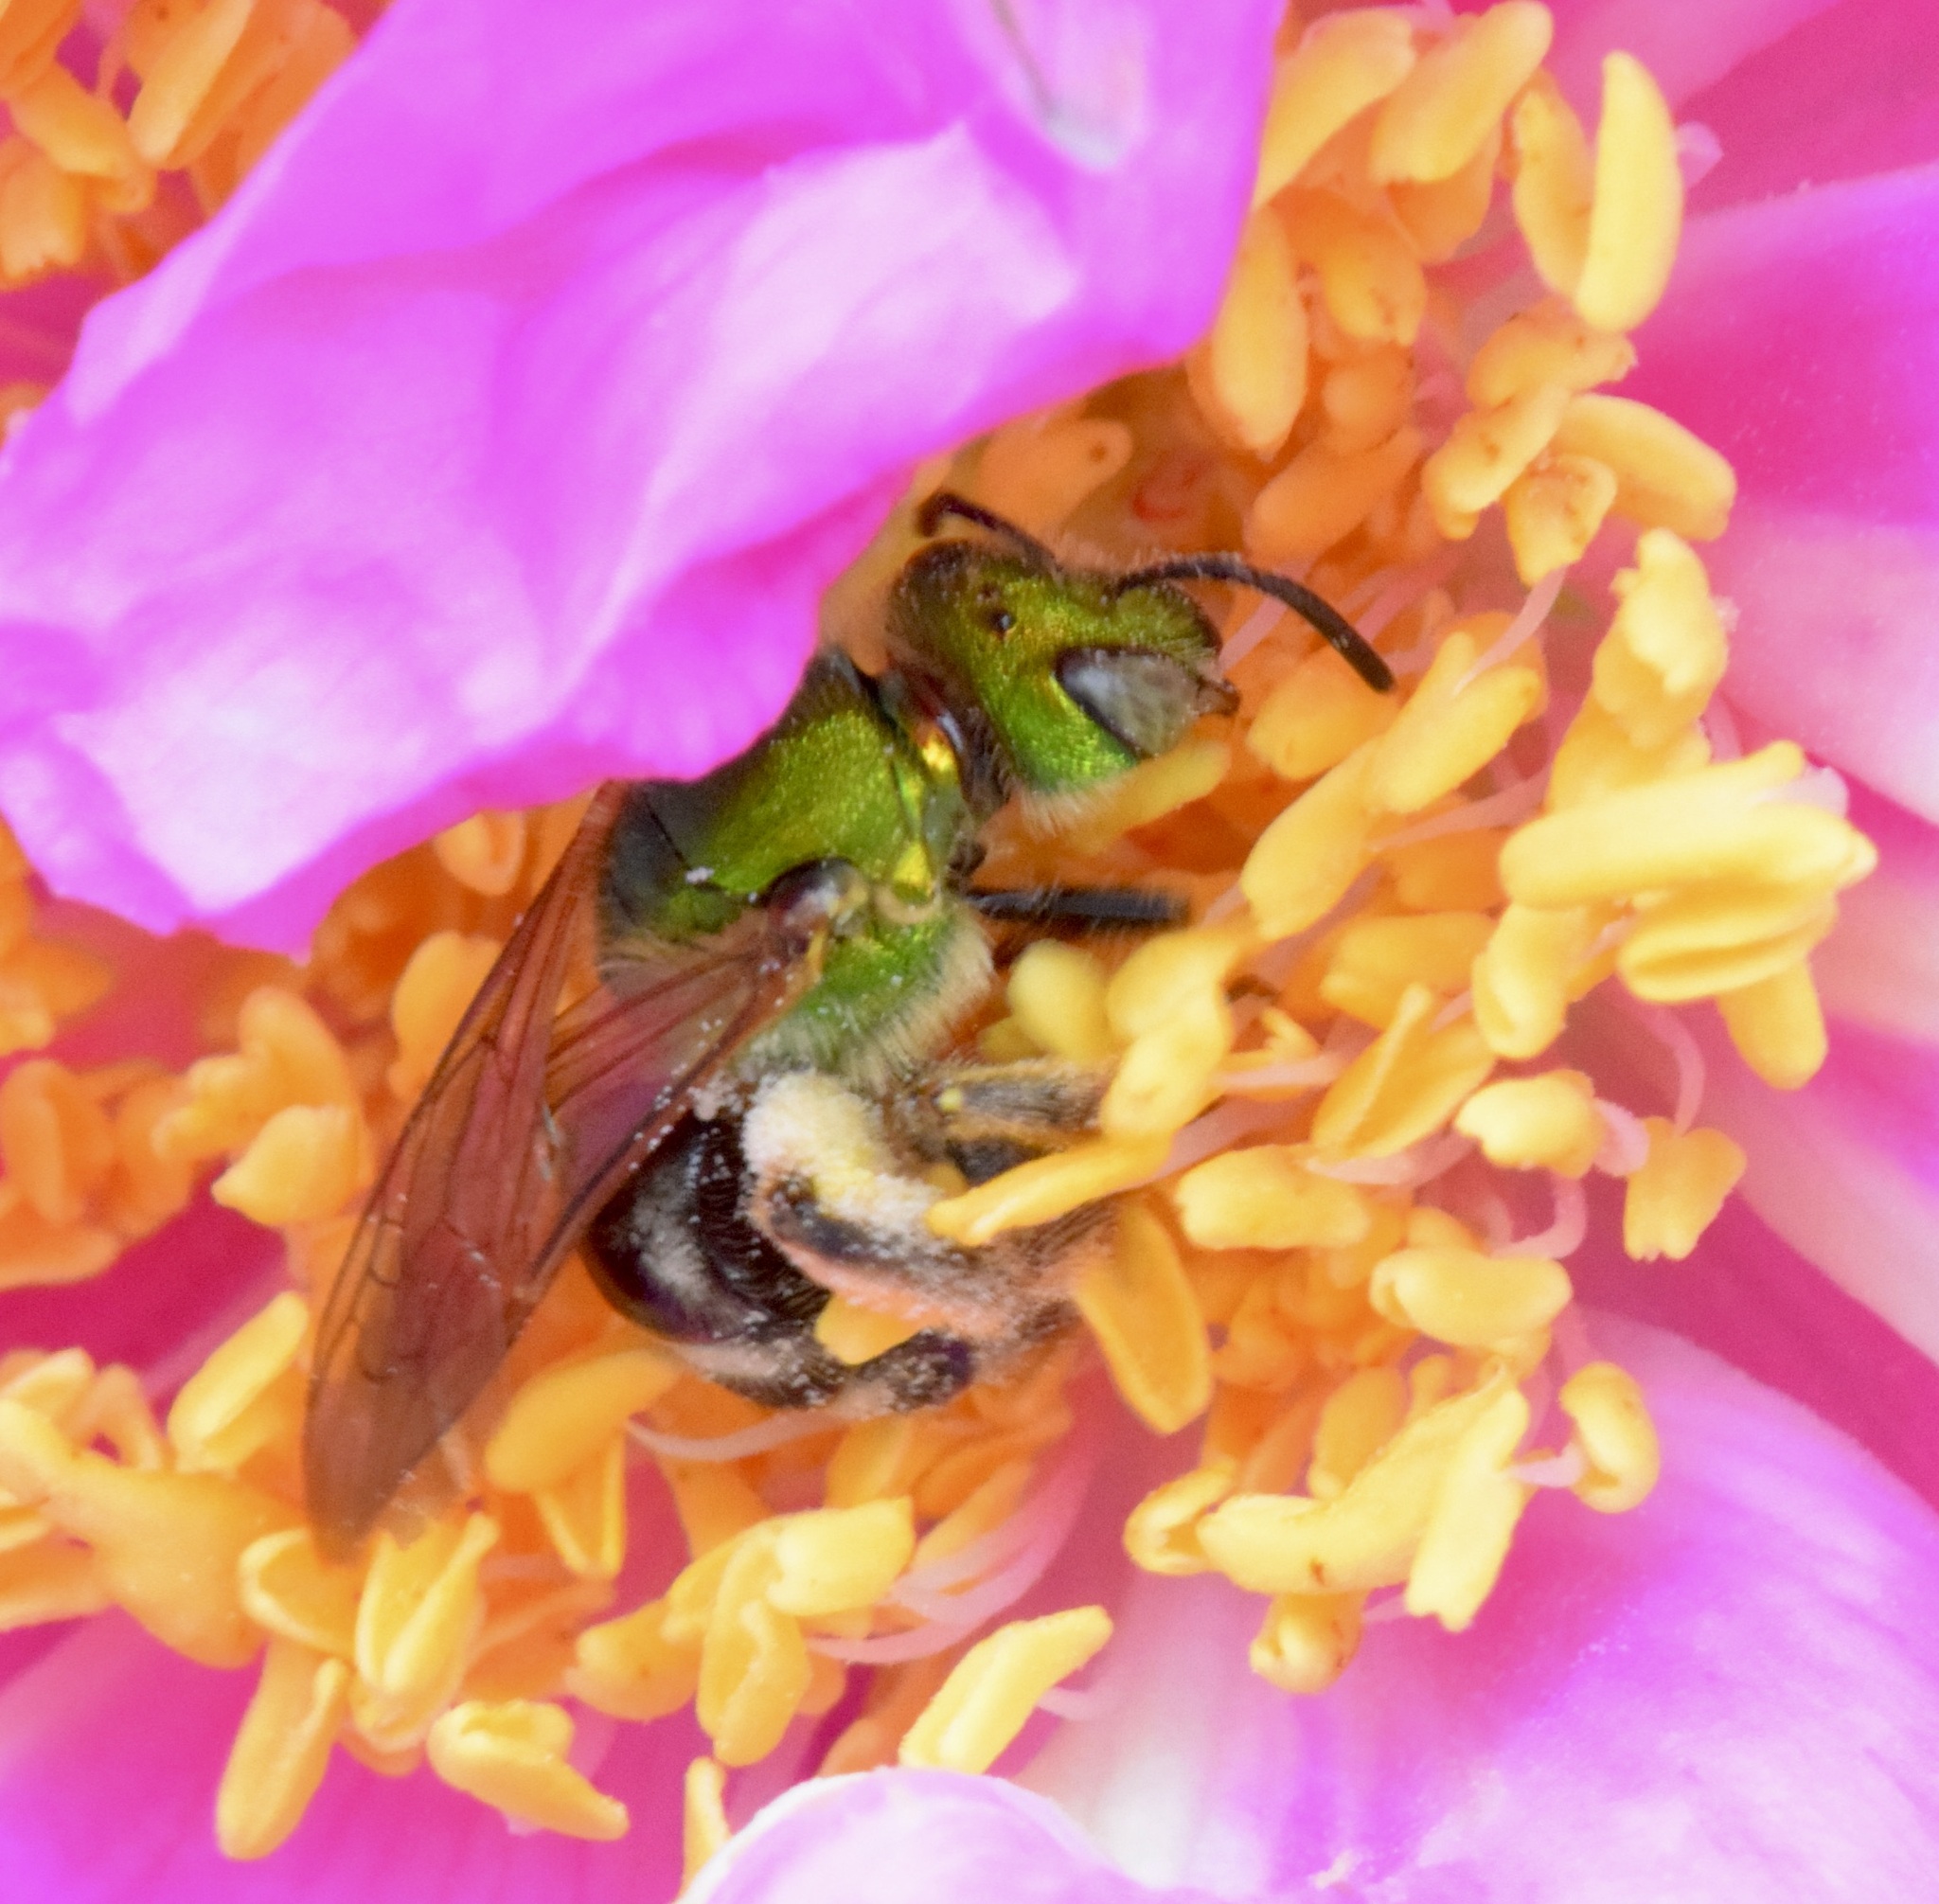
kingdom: Animalia
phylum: Arthropoda
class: Insecta
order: Hymenoptera
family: Halictidae
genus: Agapostemon
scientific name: Agapostemon virescens
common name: Bicolored striped sweat bee
